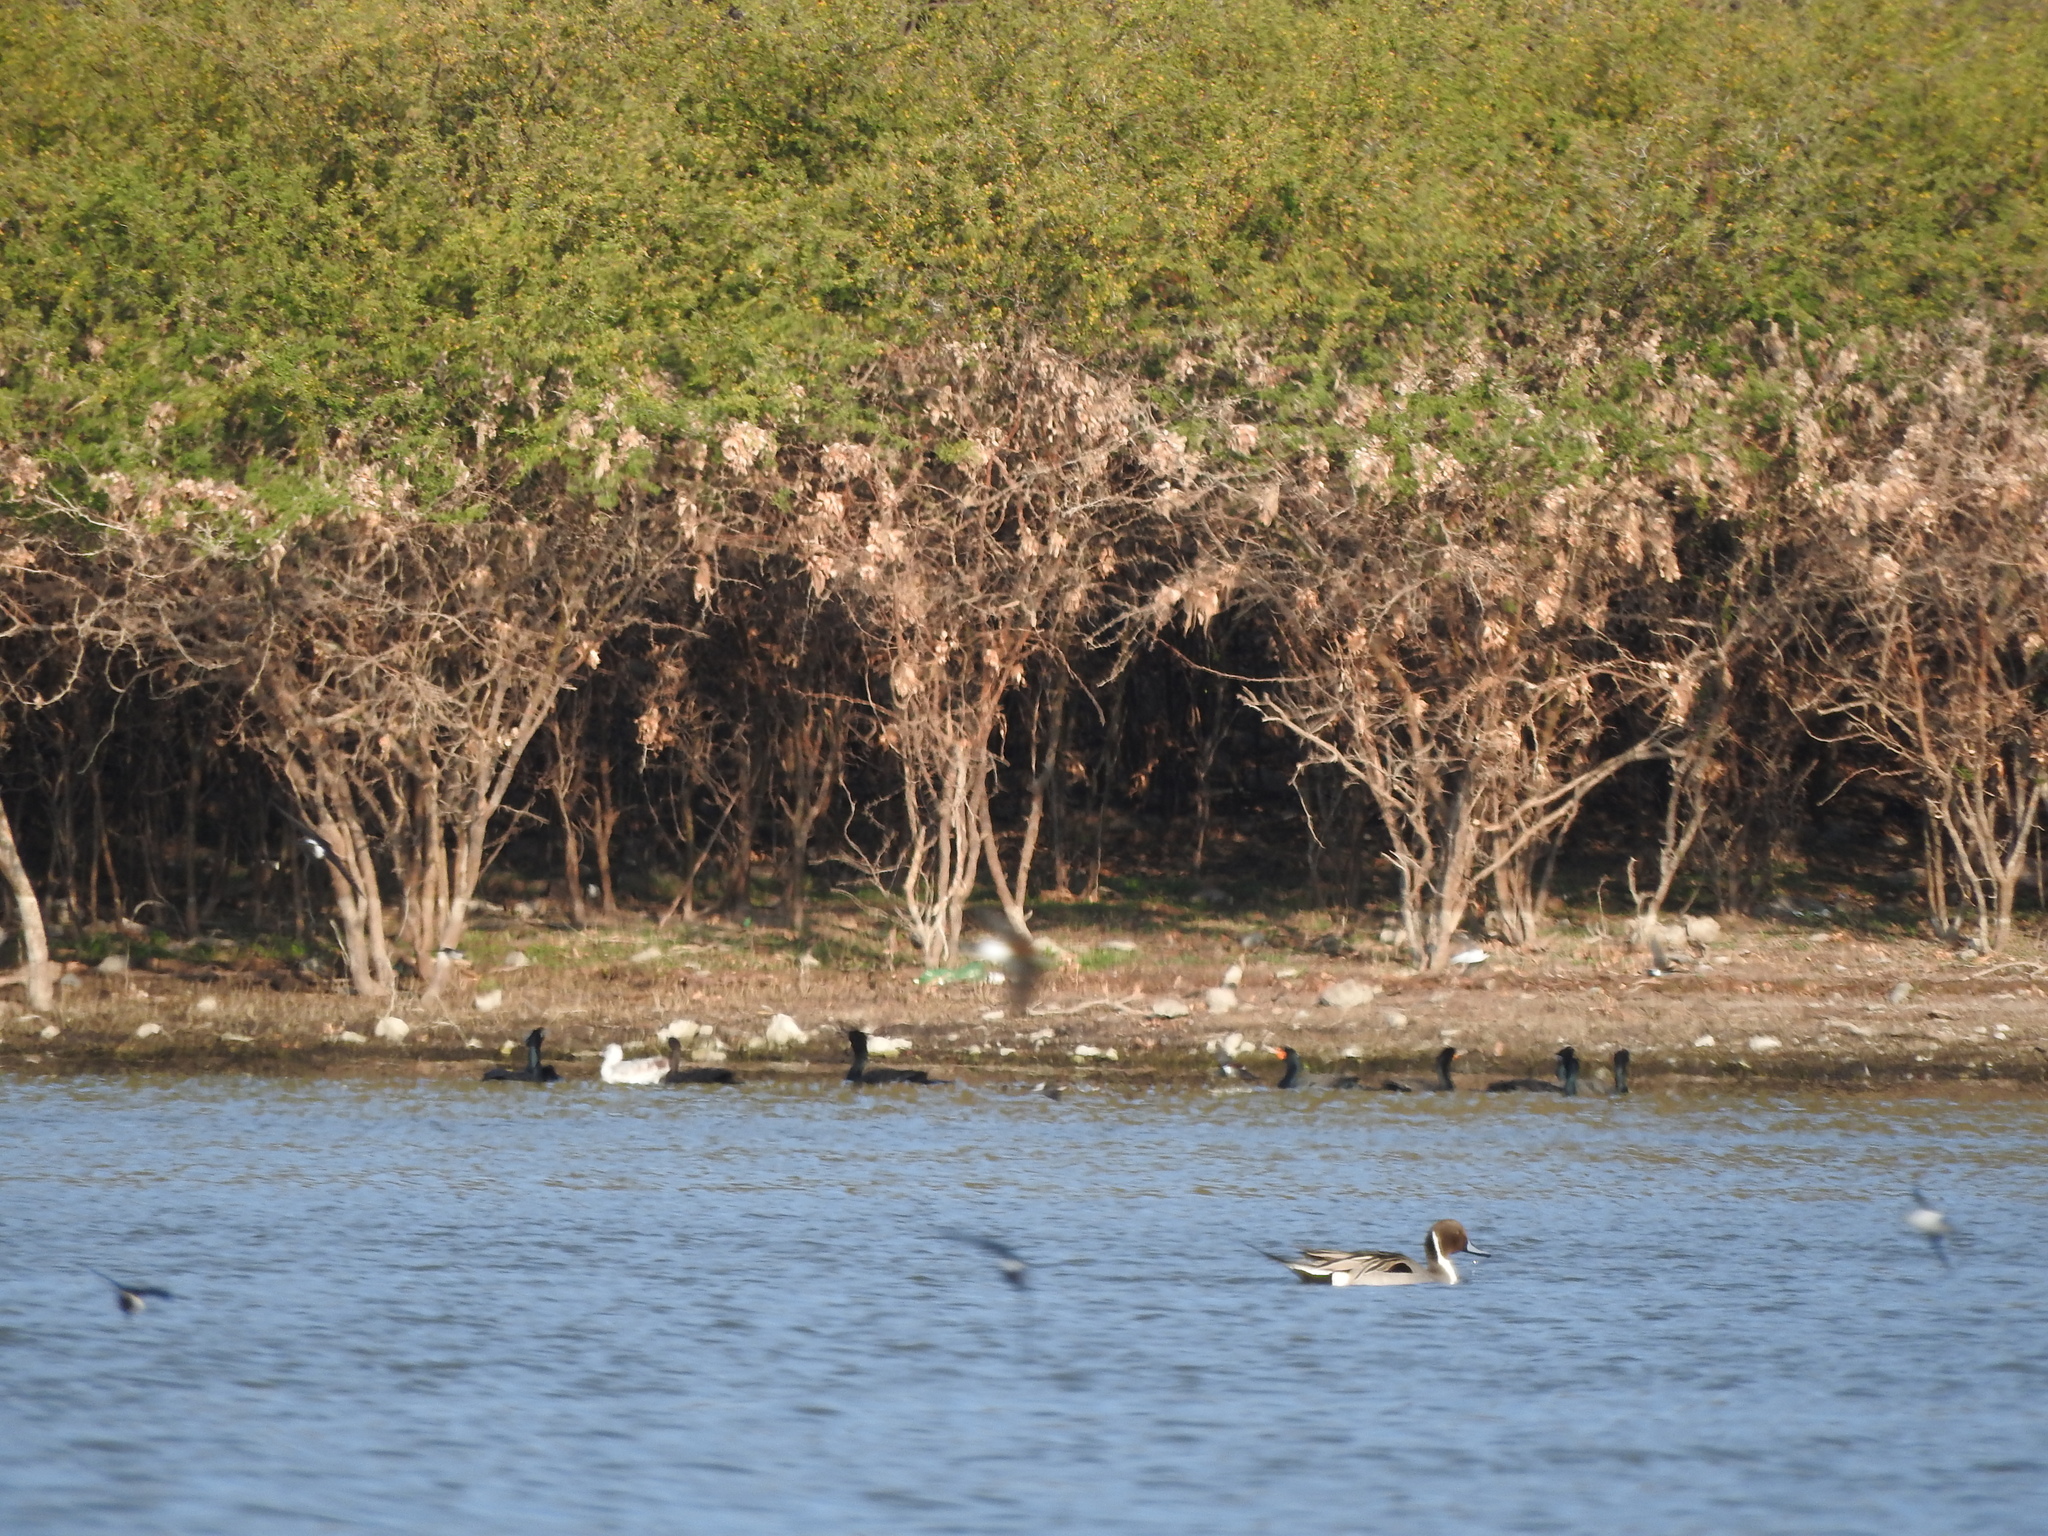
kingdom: Animalia
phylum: Chordata
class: Aves
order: Anseriformes
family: Anatidae
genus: Anas
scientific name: Anas acuta
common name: Northern pintail
